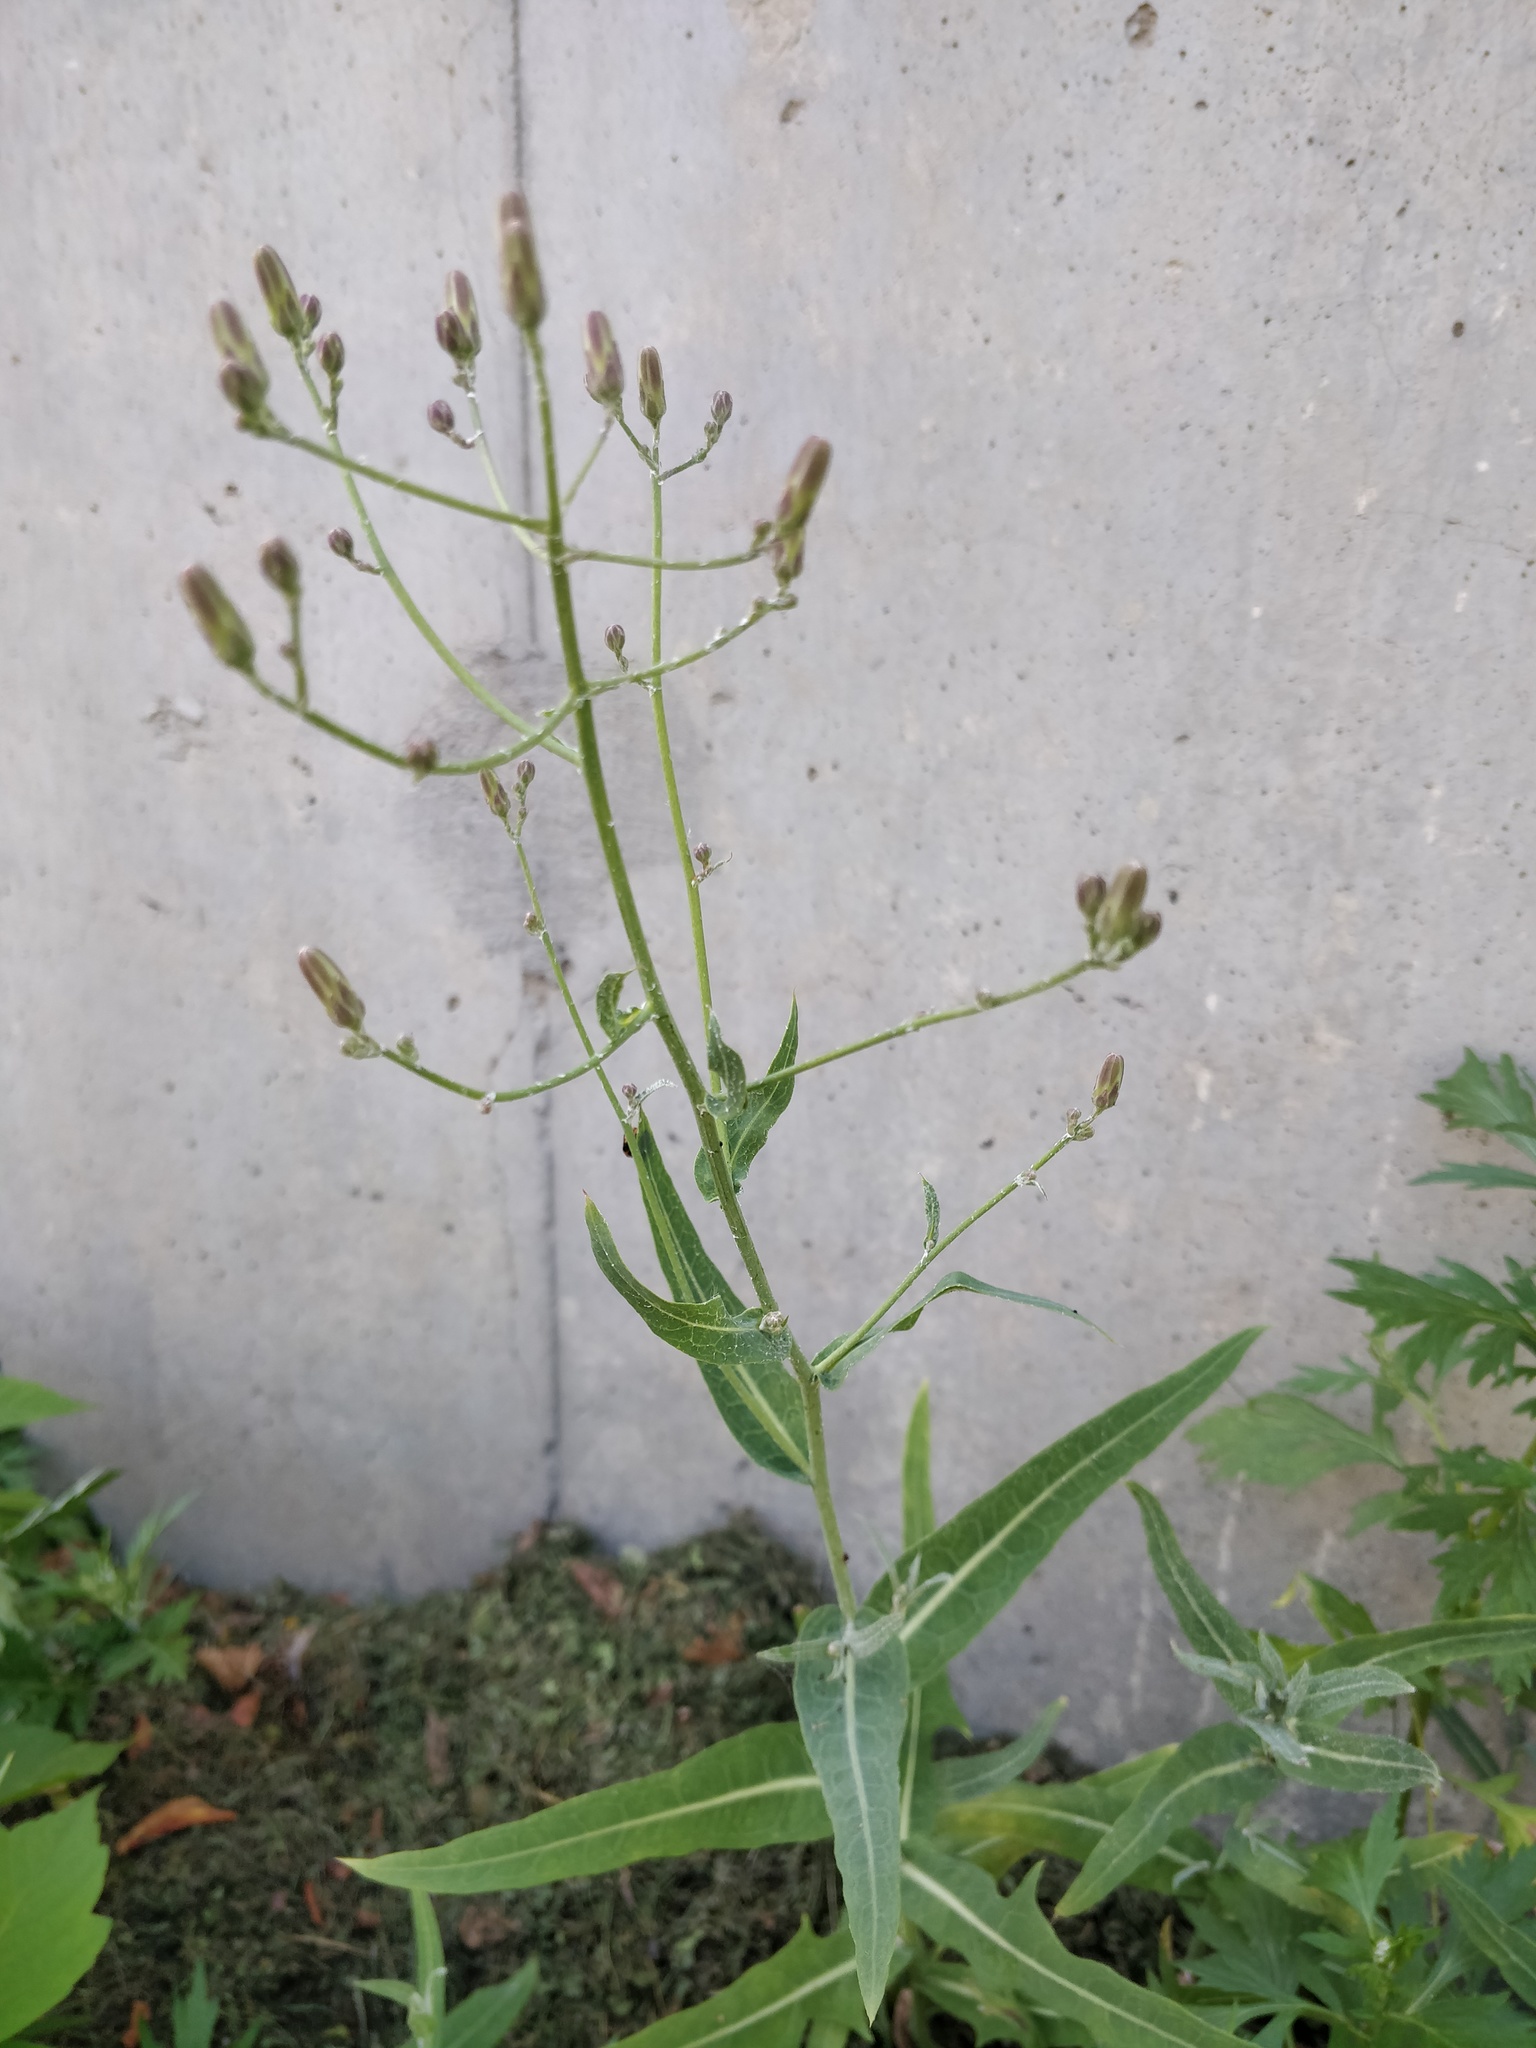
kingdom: Plantae
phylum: Tracheophyta
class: Magnoliopsida
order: Asterales
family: Asteraceae
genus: Lactuca
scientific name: Lactuca tatarica
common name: Blue lettuce
